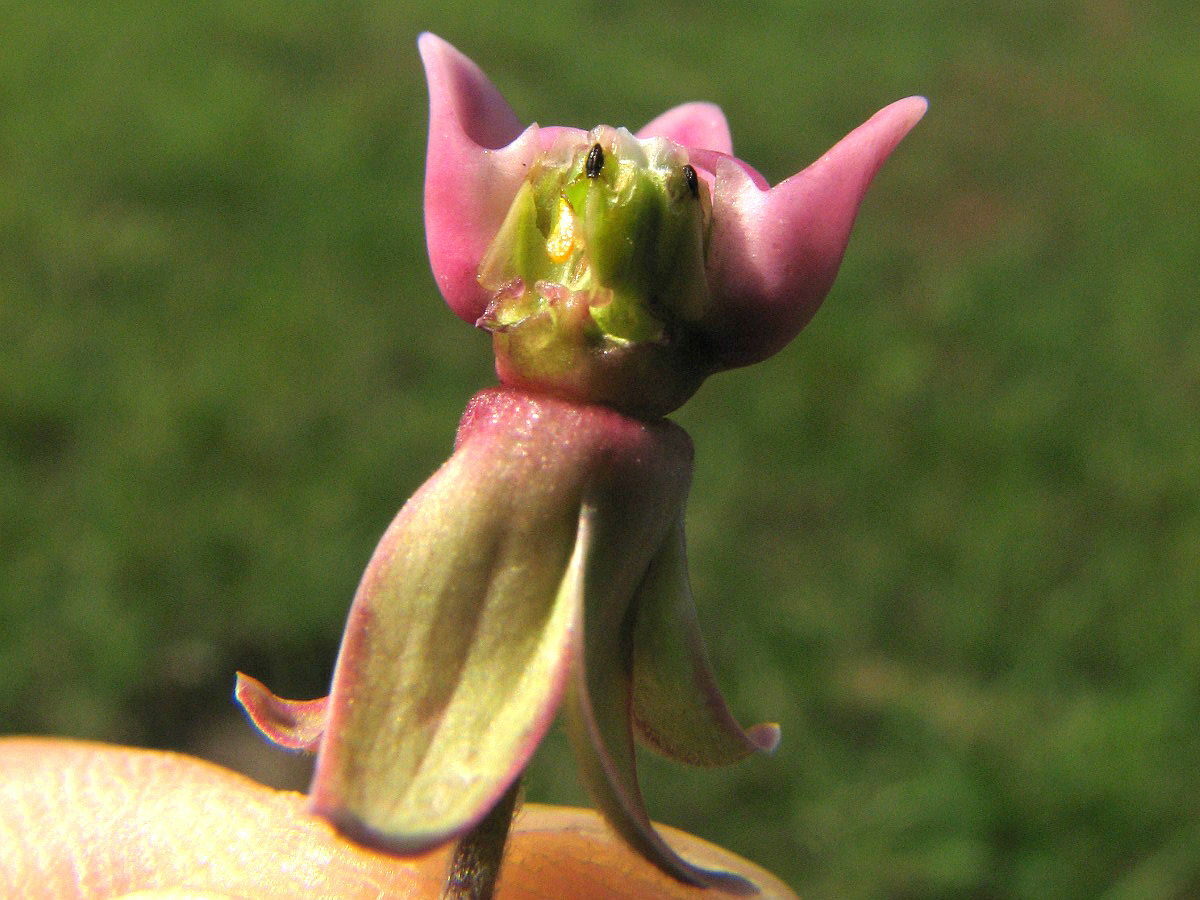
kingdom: Plantae
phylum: Tracheophyta
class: Magnoliopsida
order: Gentianales
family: Apocynaceae
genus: Asclepias
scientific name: Asclepias syriaca
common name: Common milkweed
